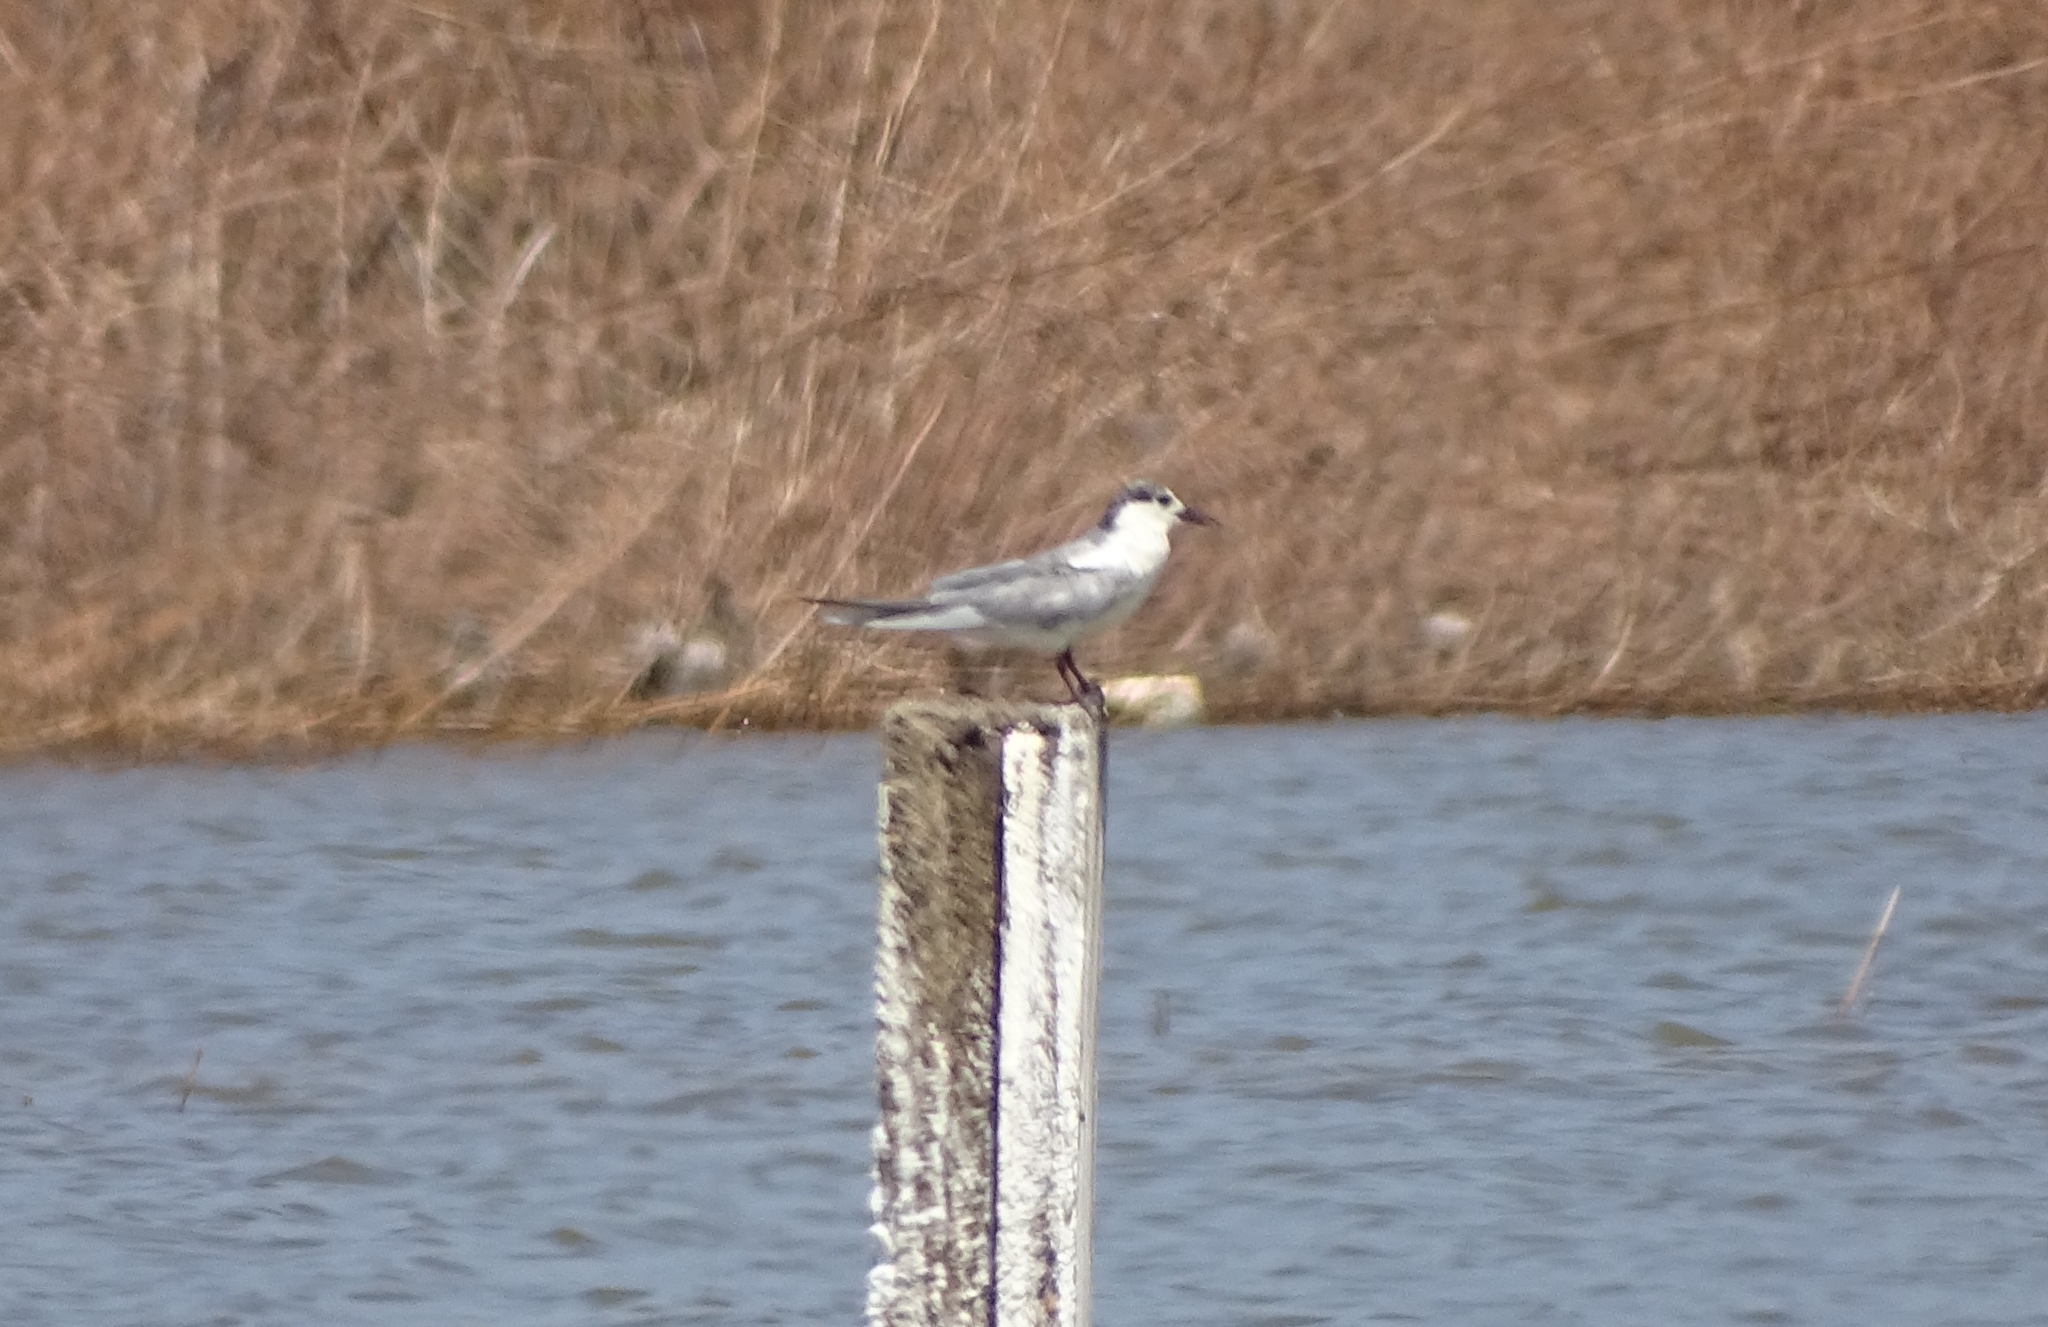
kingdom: Animalia
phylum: Chordata
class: Aves
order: Charadriiformes
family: Laridae
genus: Chlidonias
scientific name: Chlidonias hybrida
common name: Whiskered tern
